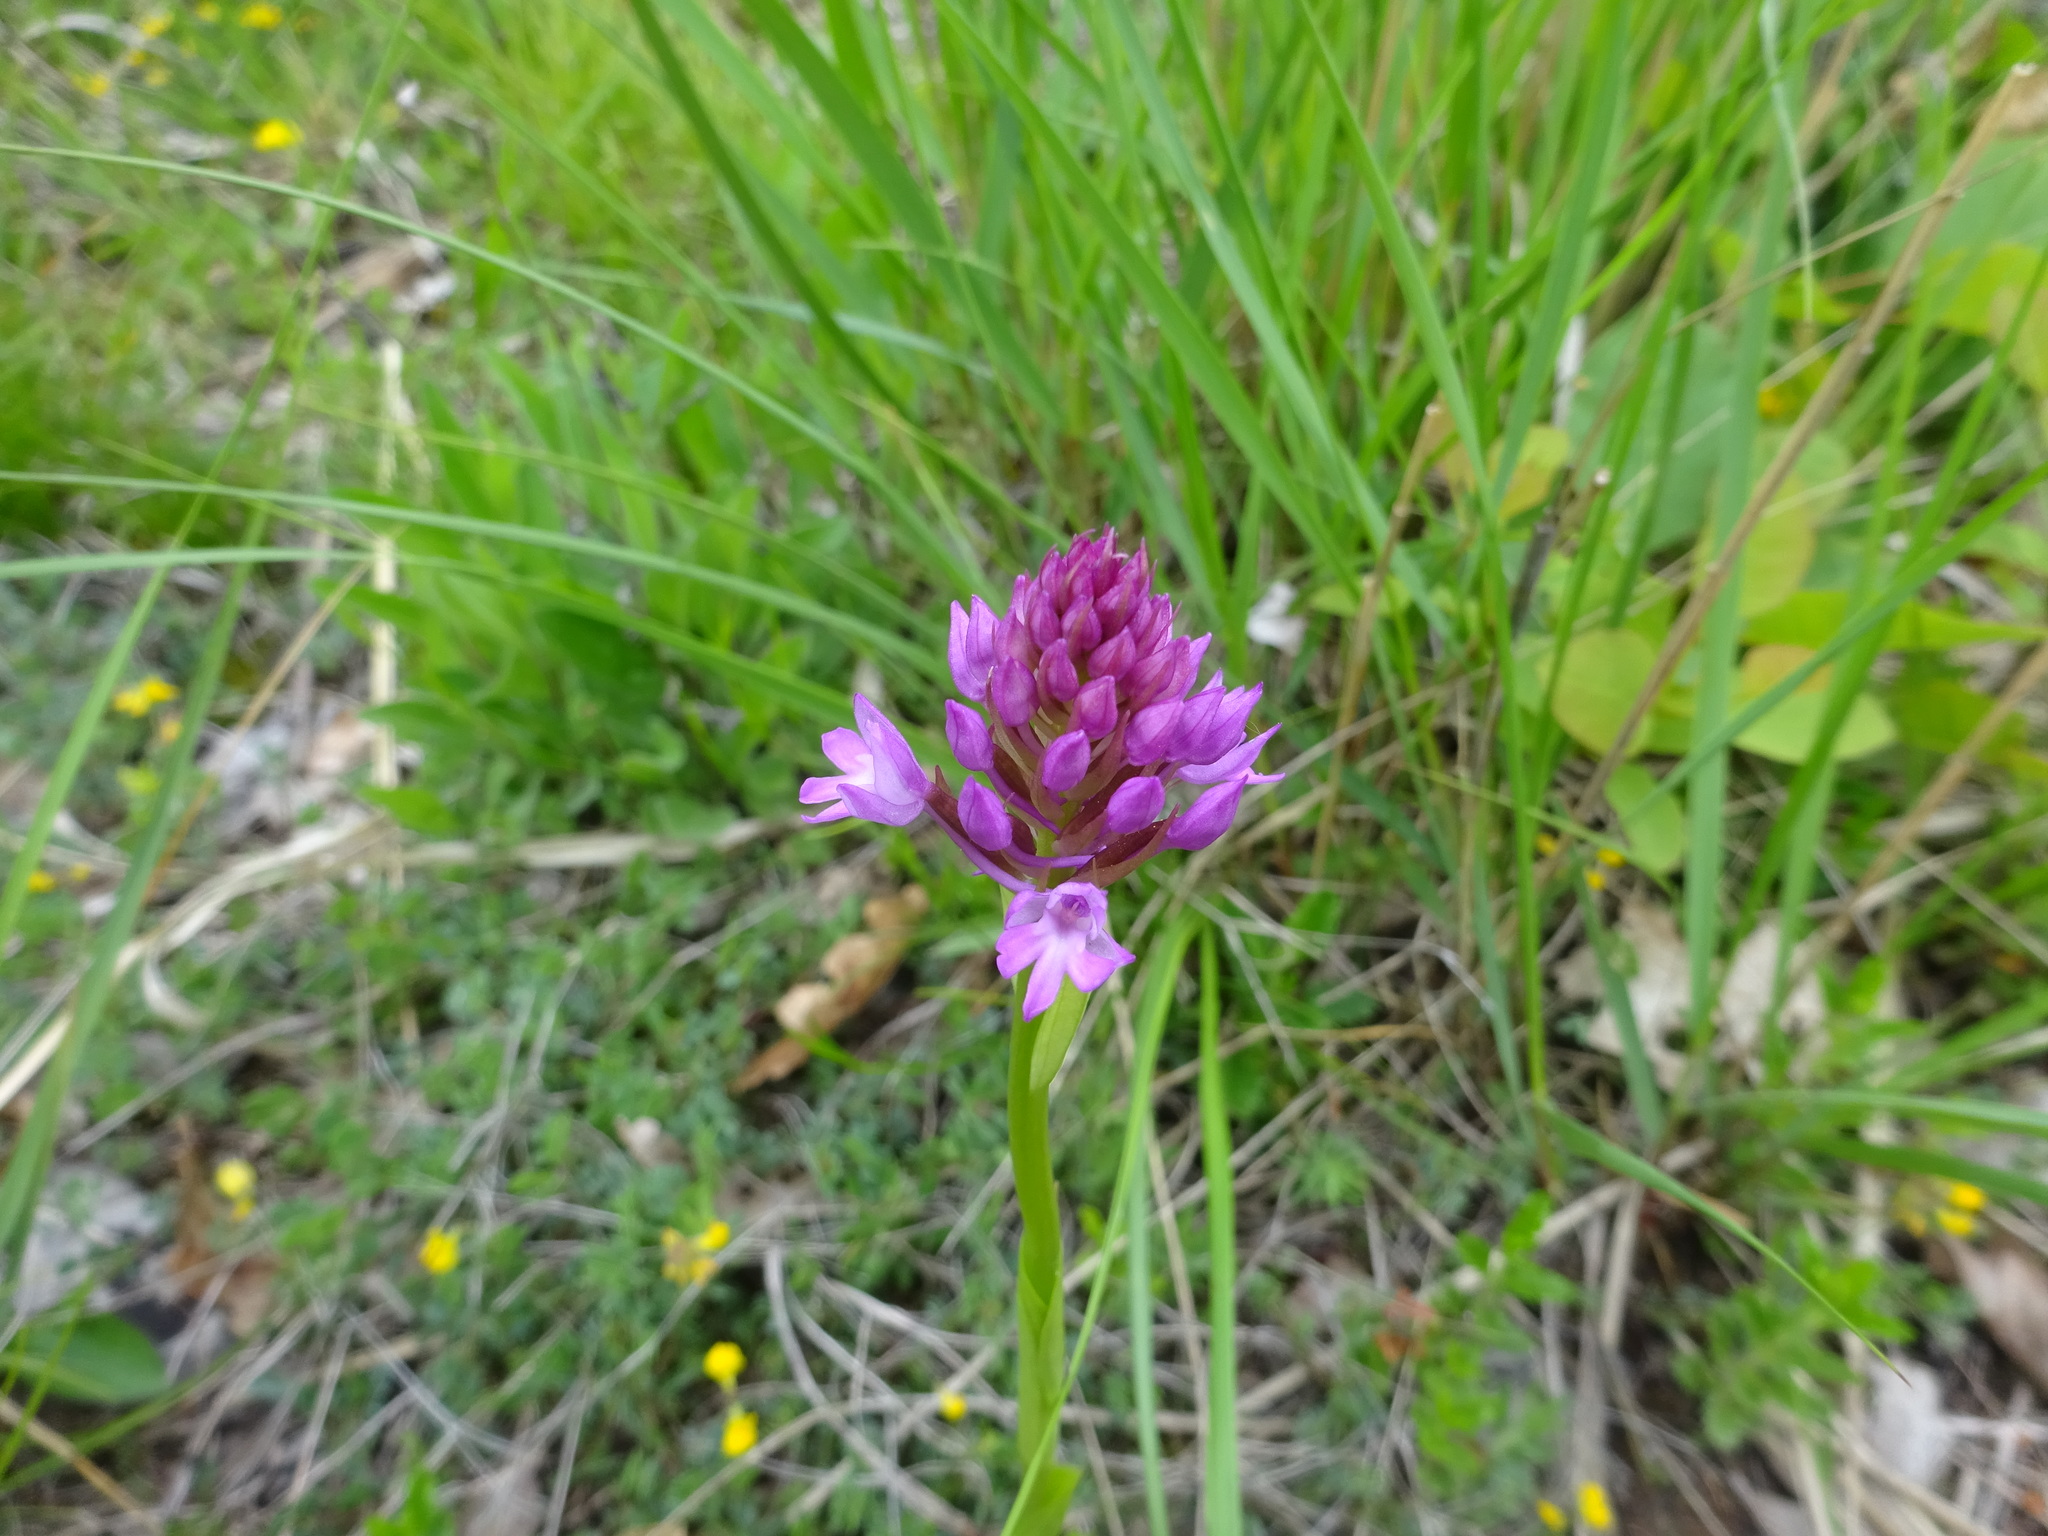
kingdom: Plantae
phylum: Tracheophyta
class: Liliopsida
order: Asparagales
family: Orchidaceae
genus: Anacamptis
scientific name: Anacamptis pyramidalis
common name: Pyramidal orchid
